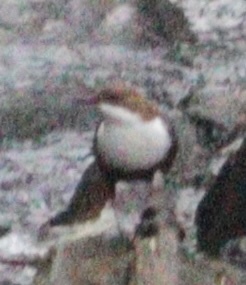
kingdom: Animalia
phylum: Chordata
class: Aves
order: Passeriformes
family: Cinclidae
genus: Cinclus
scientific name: Cinclus cinclus
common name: White-throated dipper
